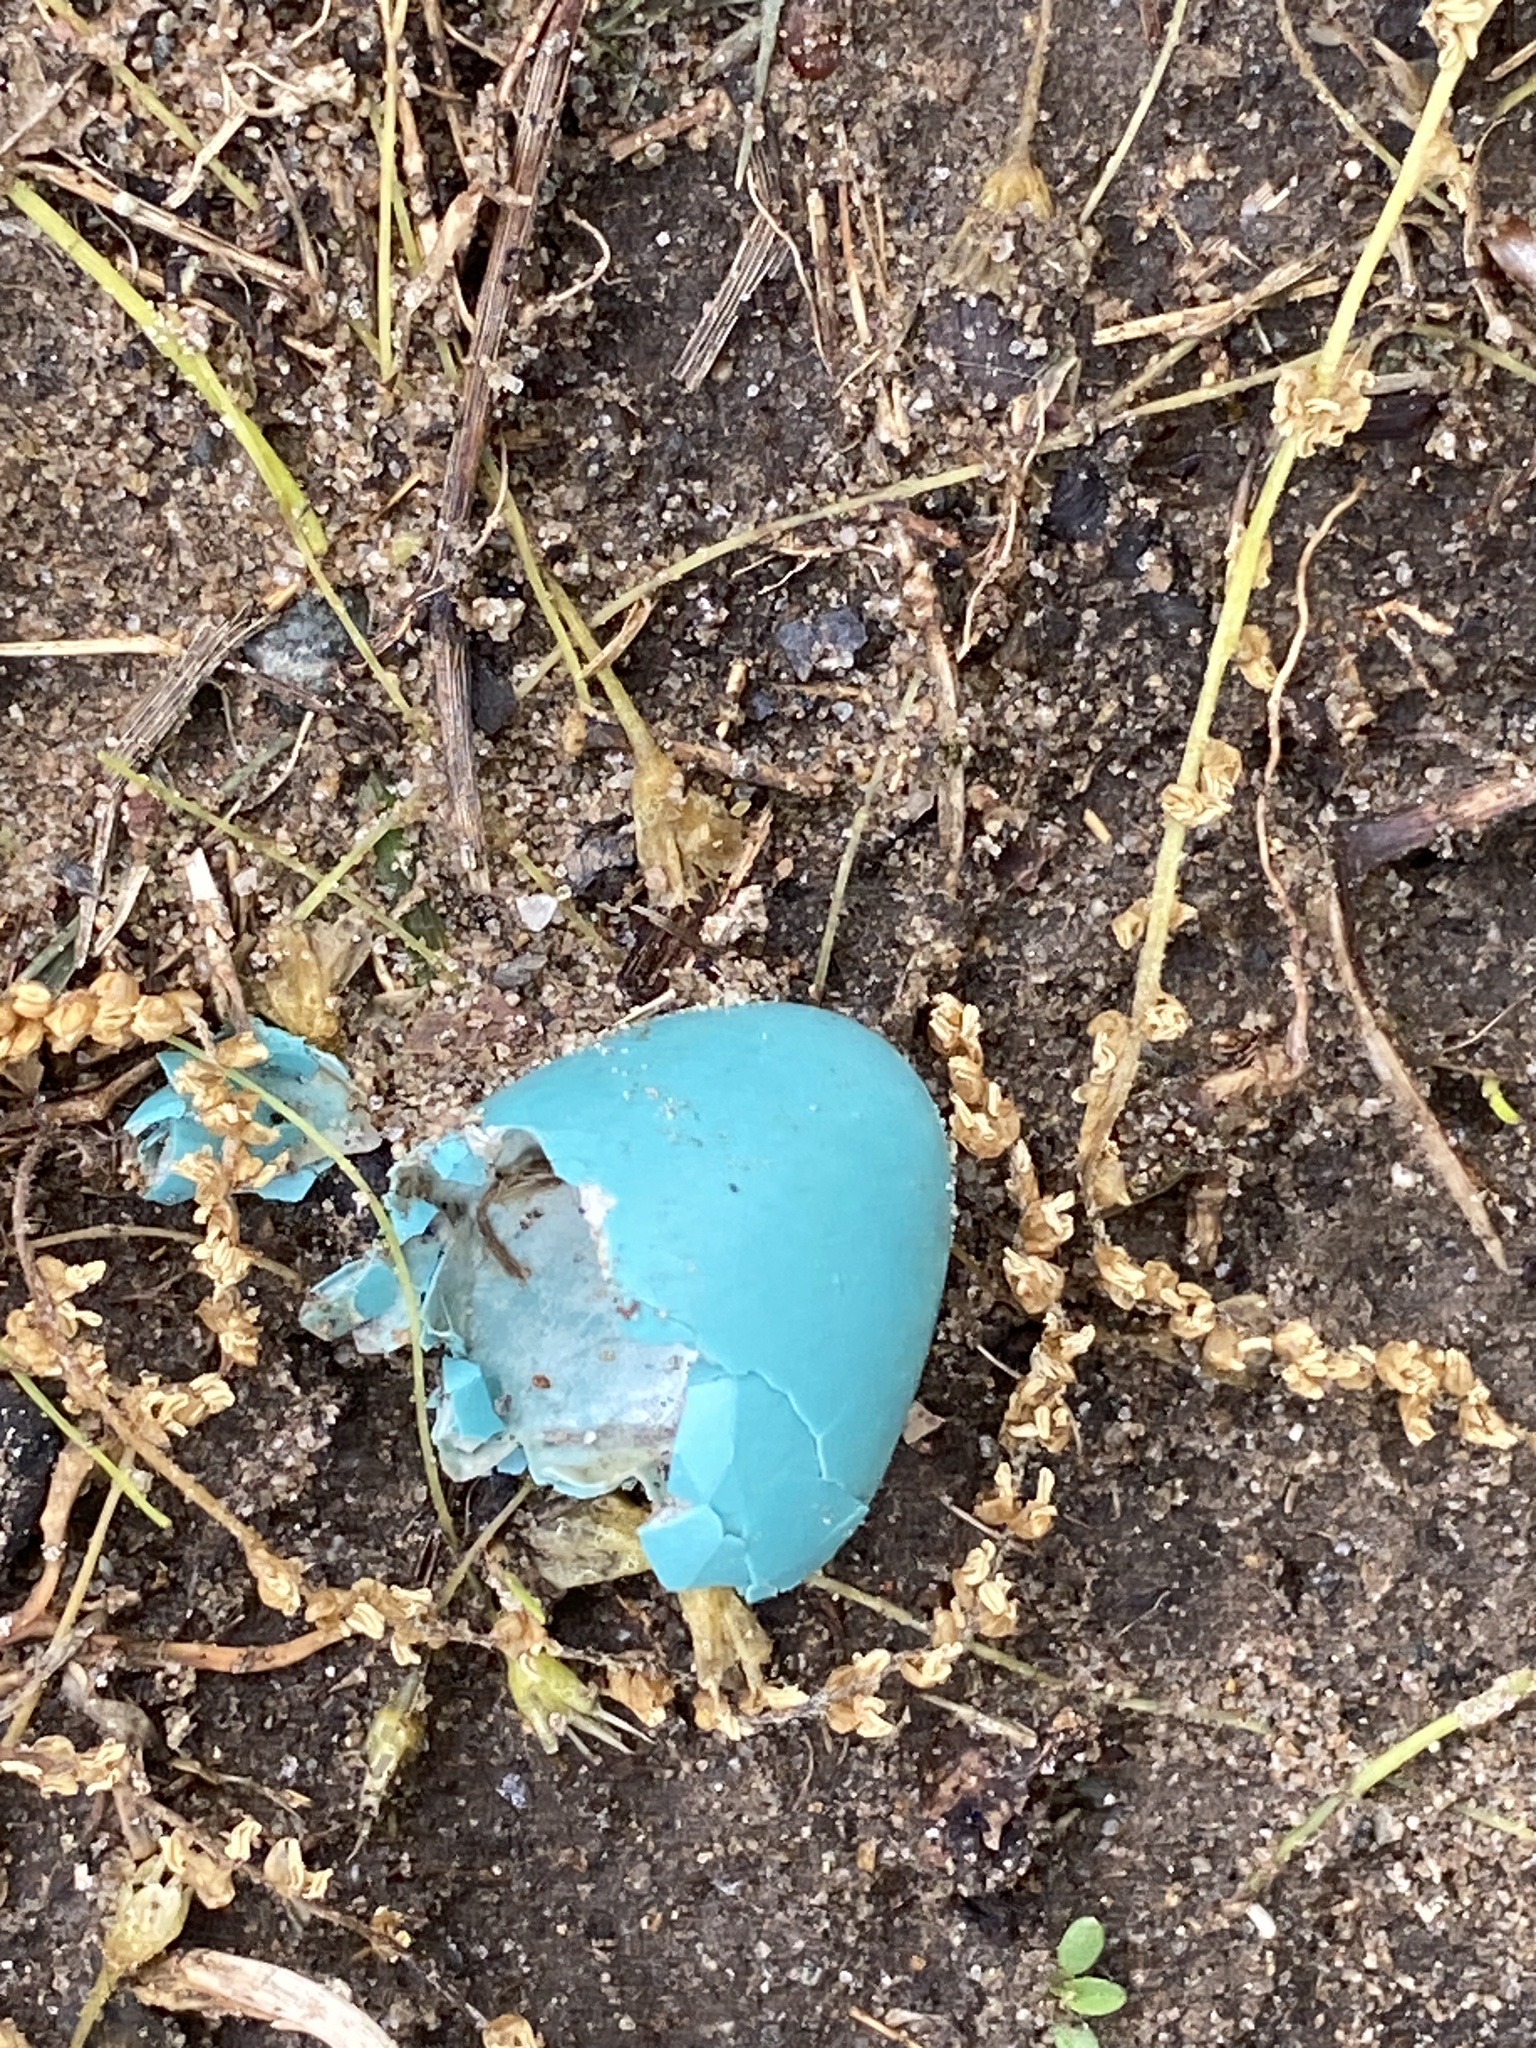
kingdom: Animalia
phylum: Chordata
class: Aves
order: Passeriformes
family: Turdidae
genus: Turdus
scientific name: Turdus migratorius
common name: American robin
